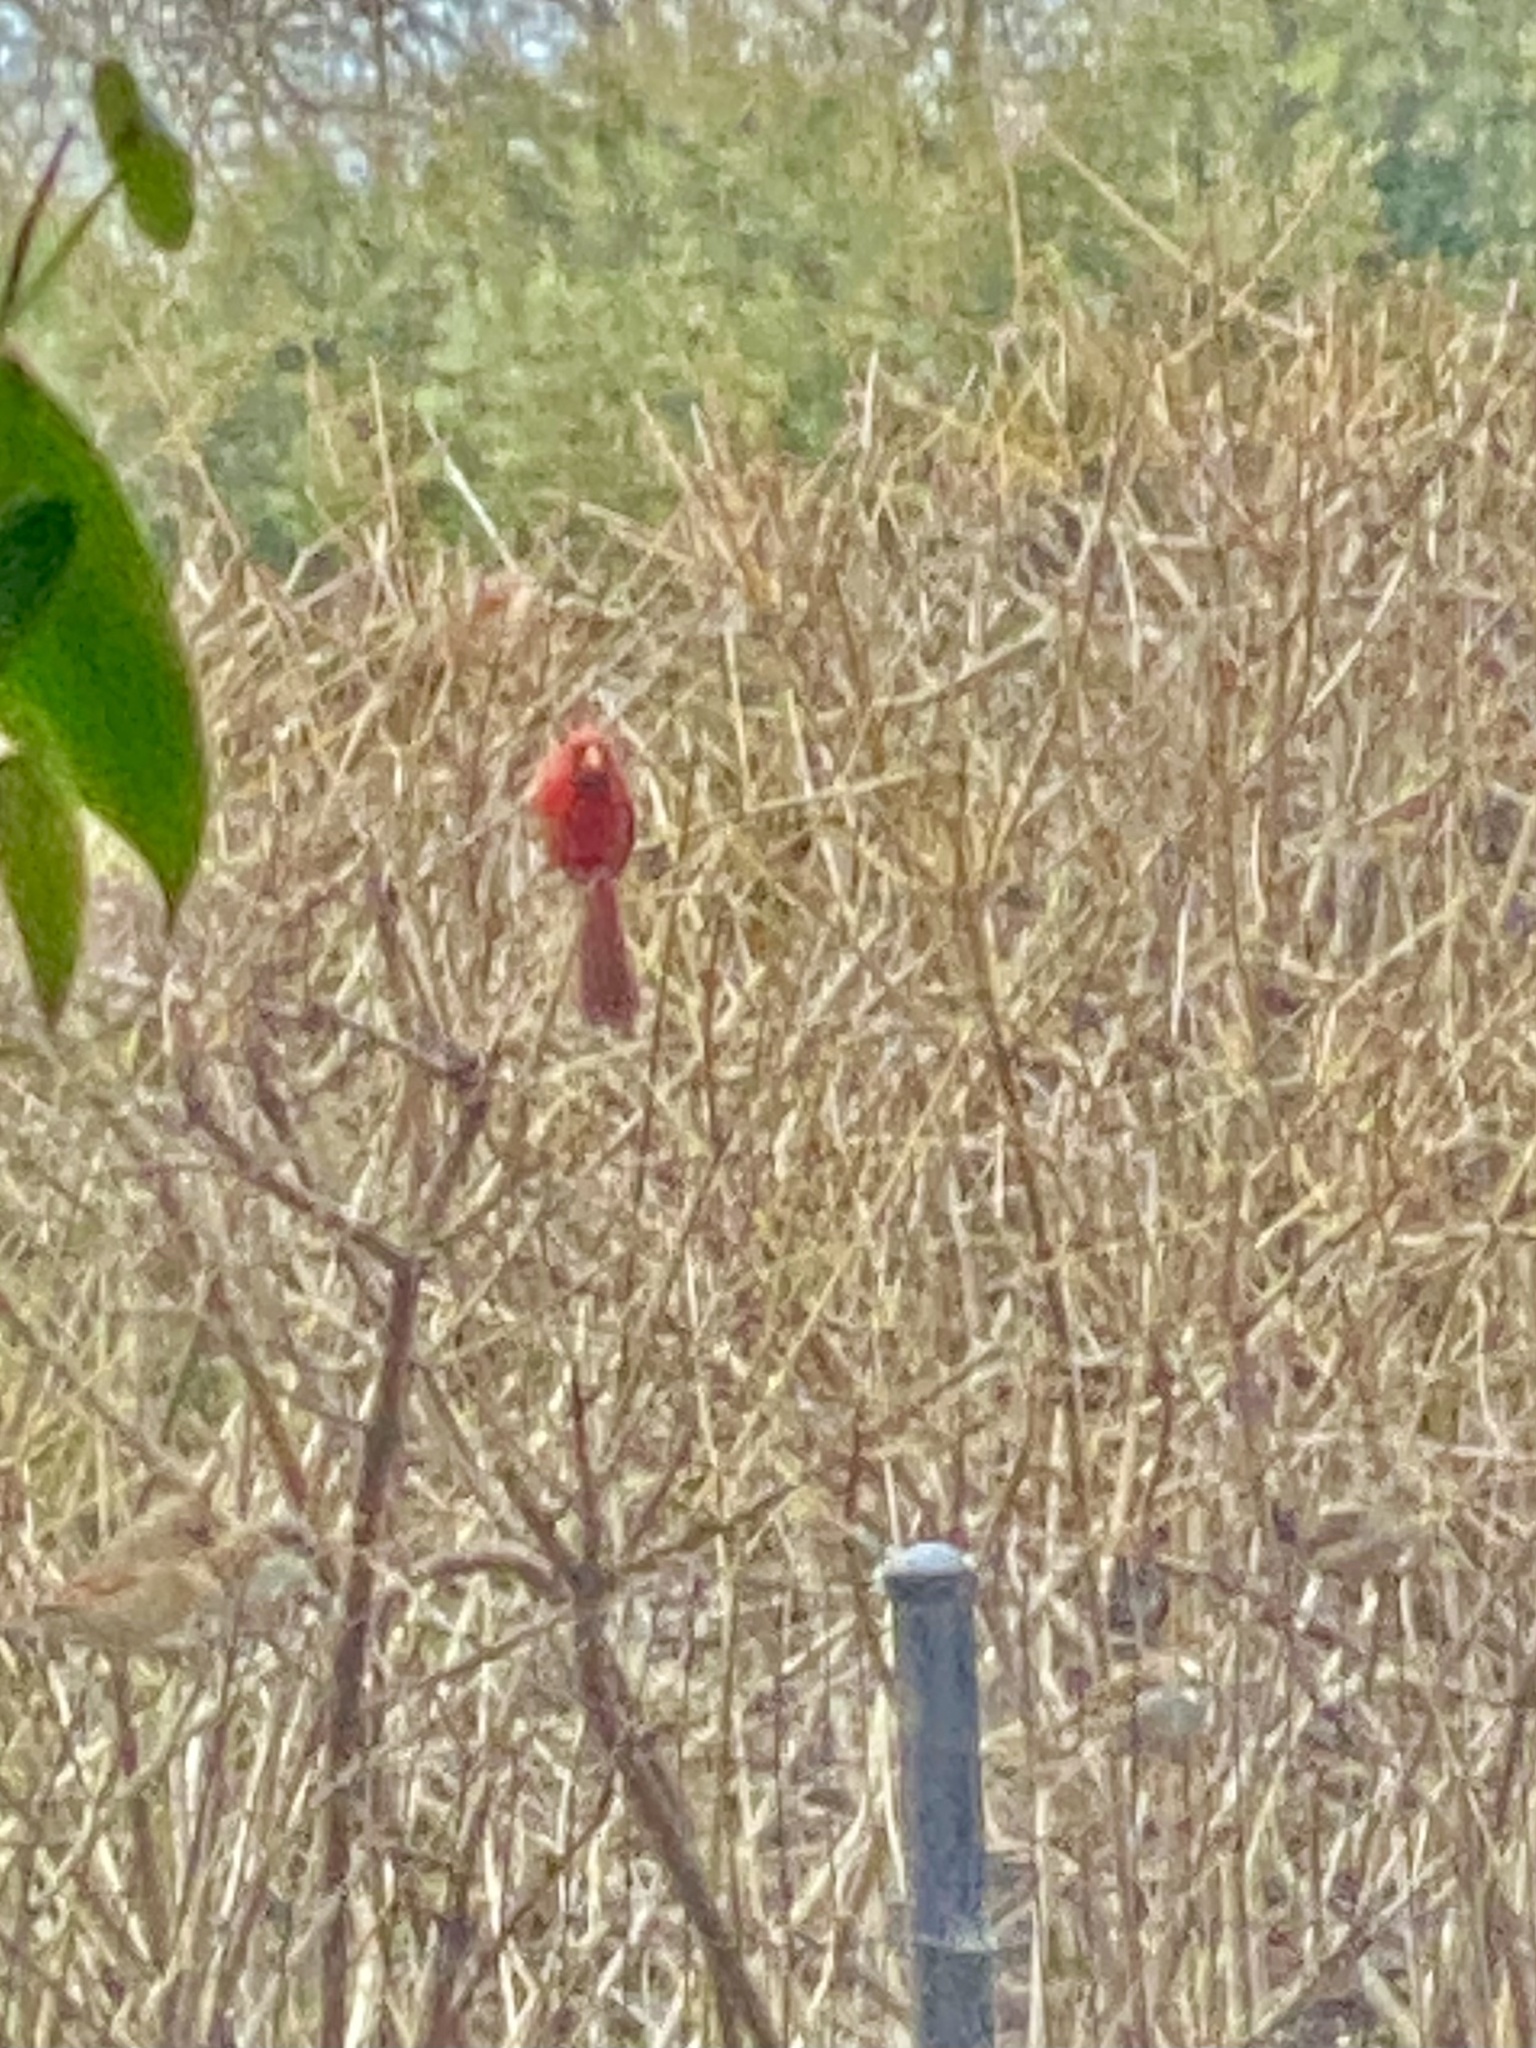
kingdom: Animalia
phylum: Chordata
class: Aves
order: Passeriformes
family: Cardinalidae
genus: Cardinalis
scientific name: Cardinalis cardinalis
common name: Northern cardinal
